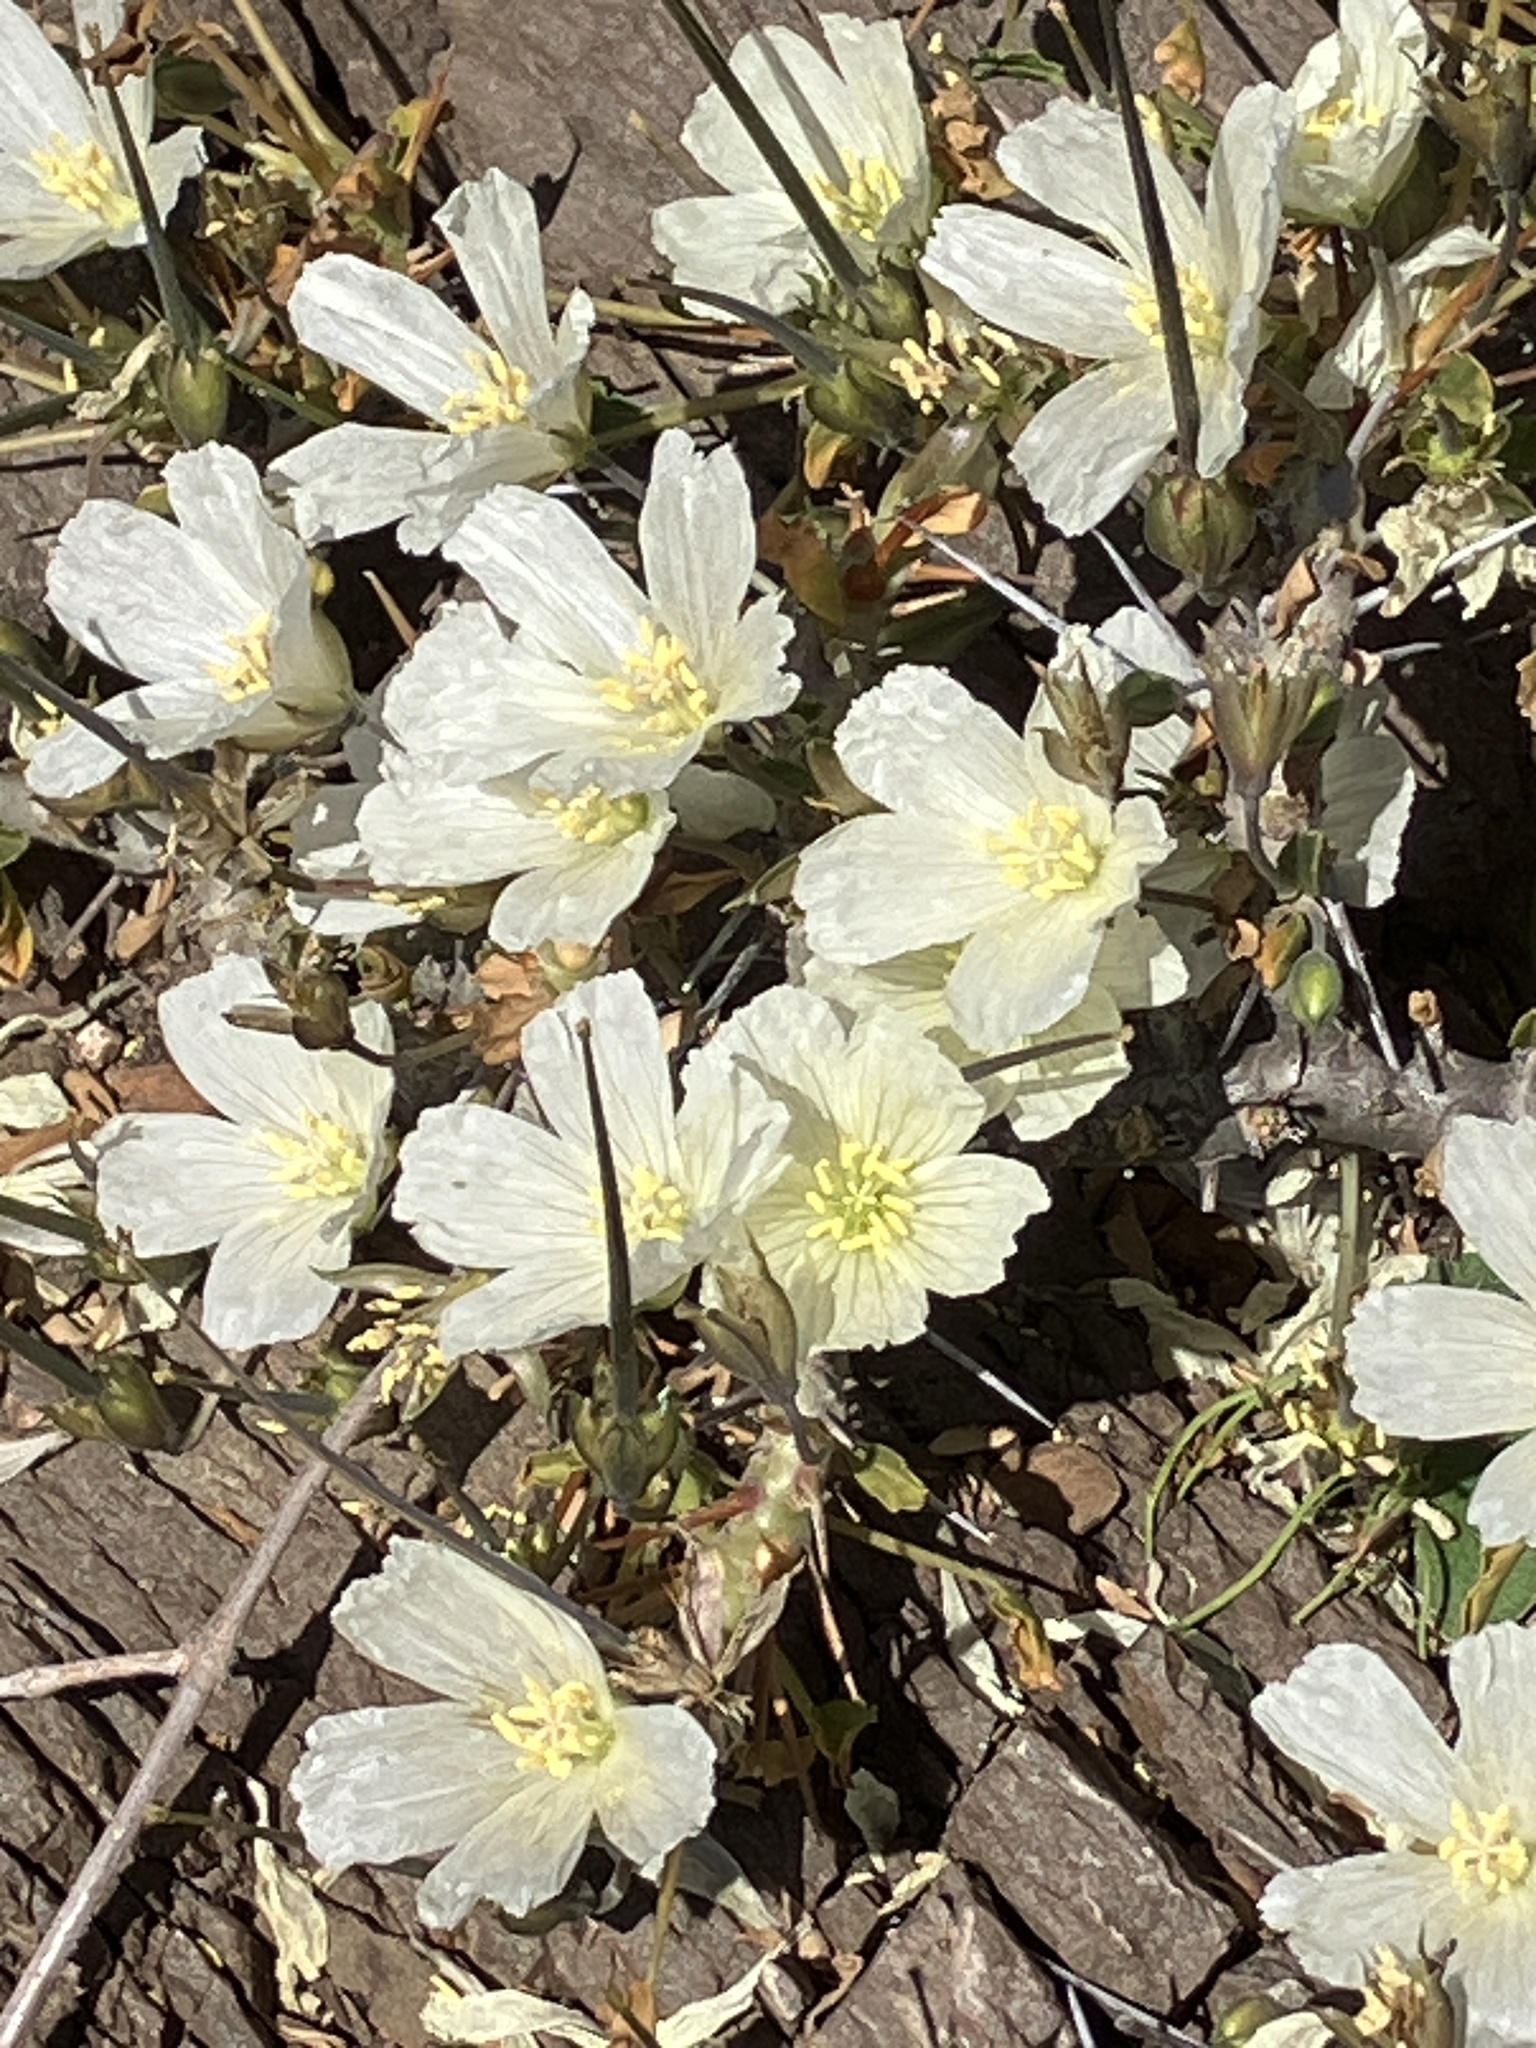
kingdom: Plantae
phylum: Tracheophyta
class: Magnoliopsida
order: Geraniales
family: Geraniaceae
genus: Monsonia
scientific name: Monsonia crassicaulis
